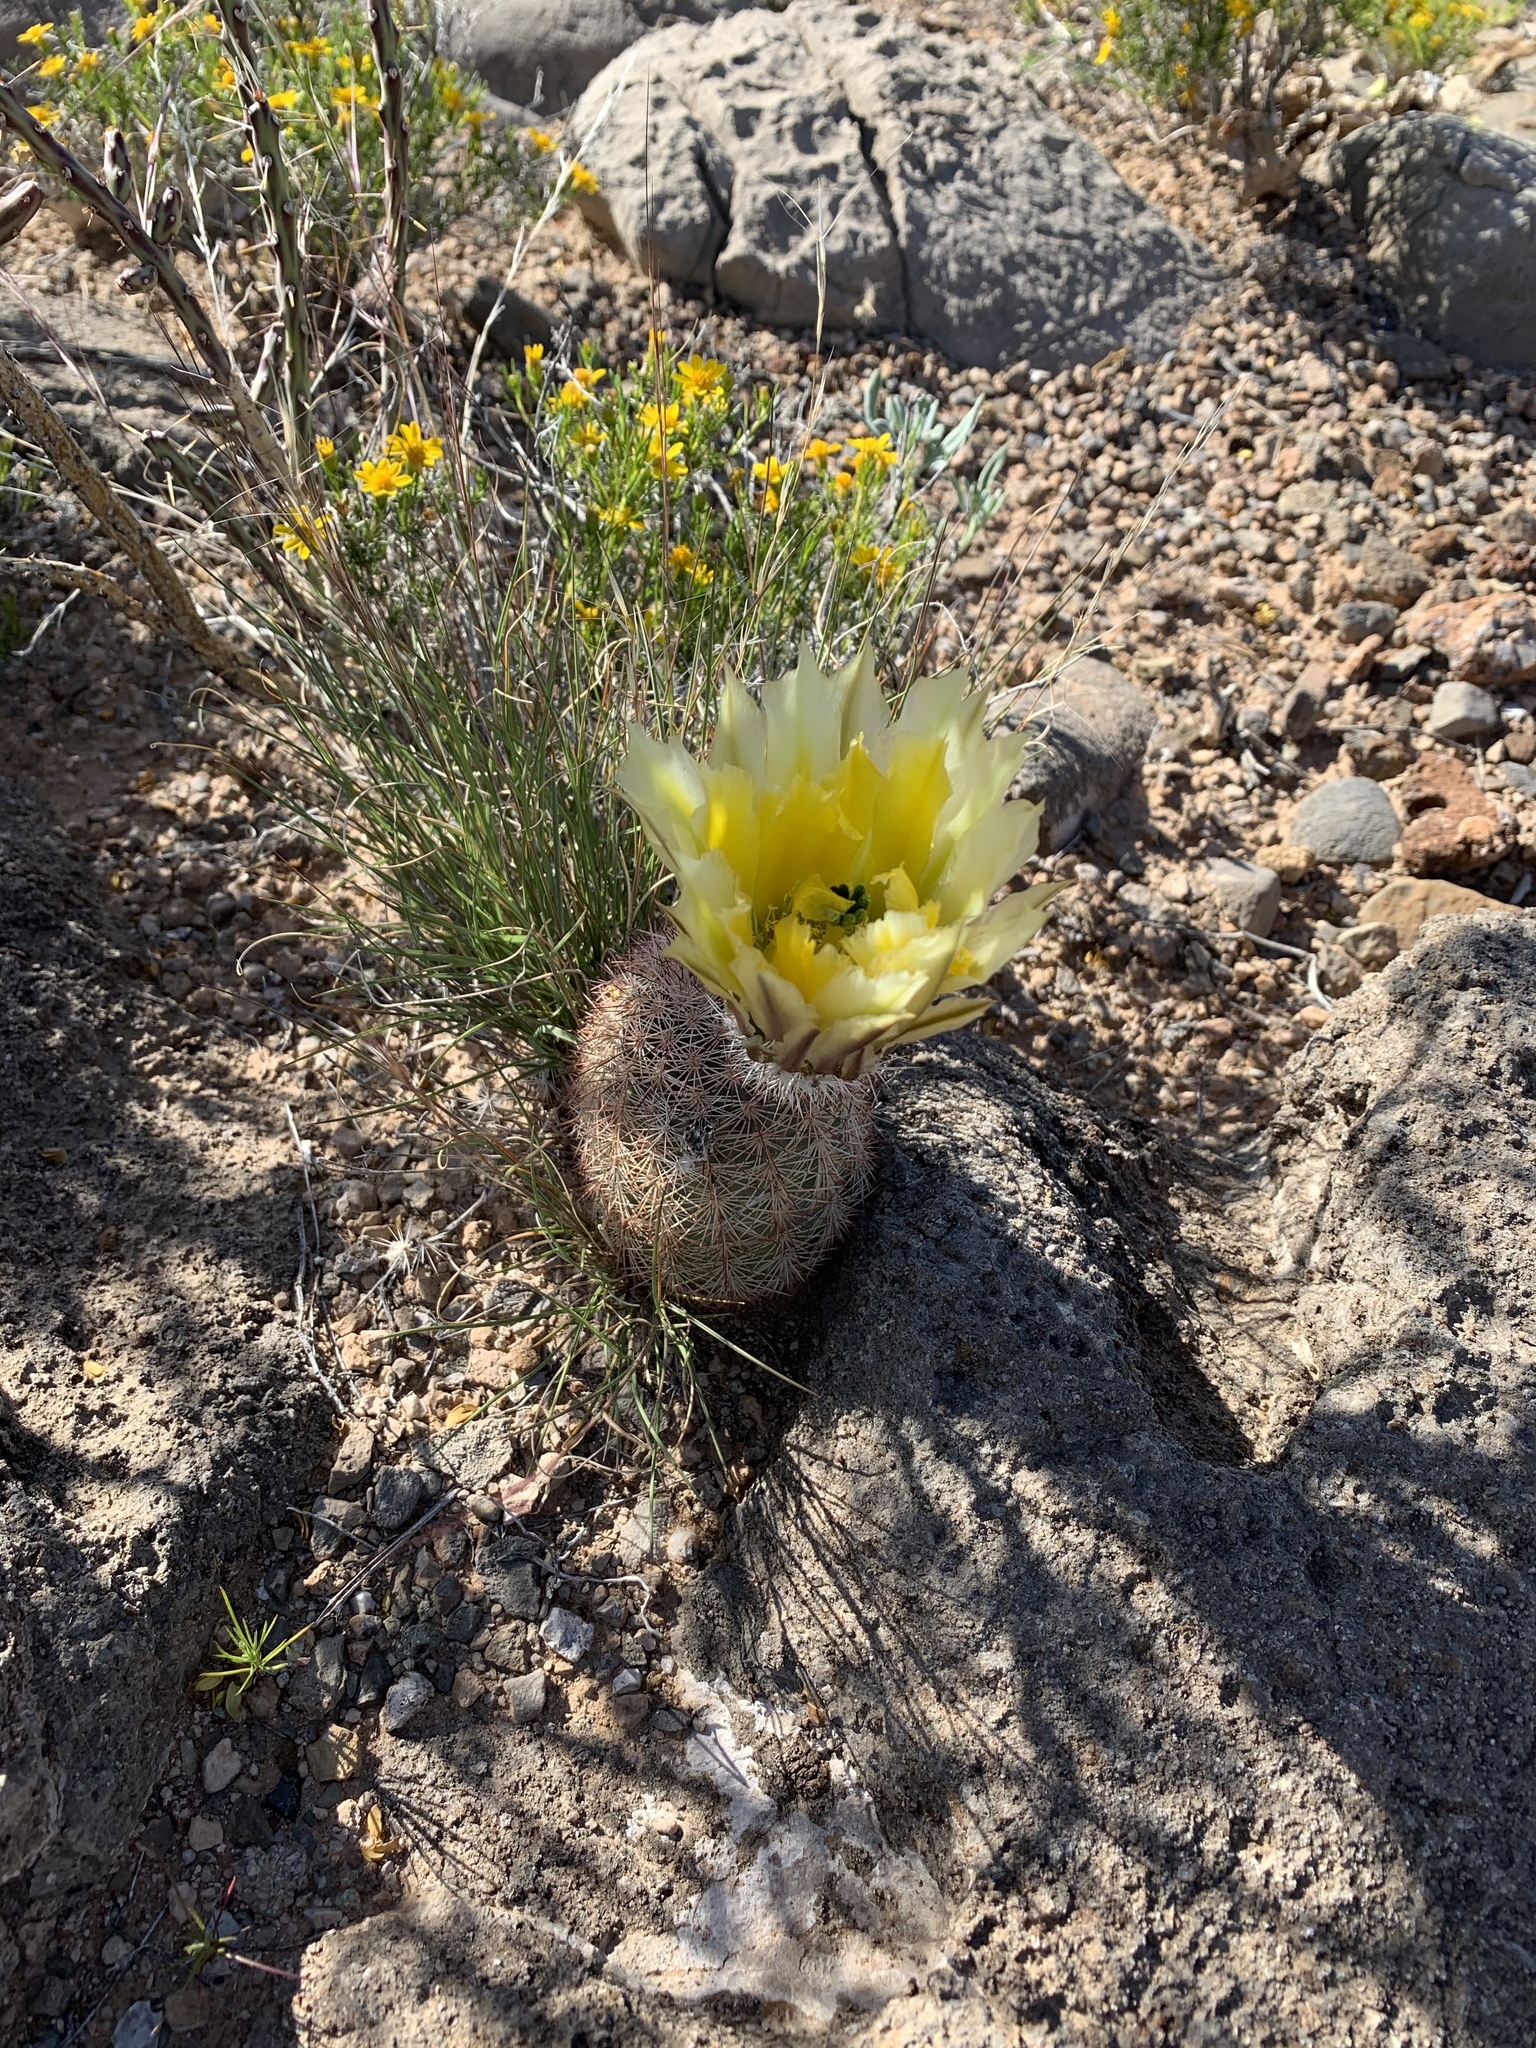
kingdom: Plantae
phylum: Tracheophyta
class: Magnoliopsida
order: Caryophyllales
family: Cactaceae
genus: Echinocereus
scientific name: Echinocereus dasyacanthus
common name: Spiny hedgehog cactus
